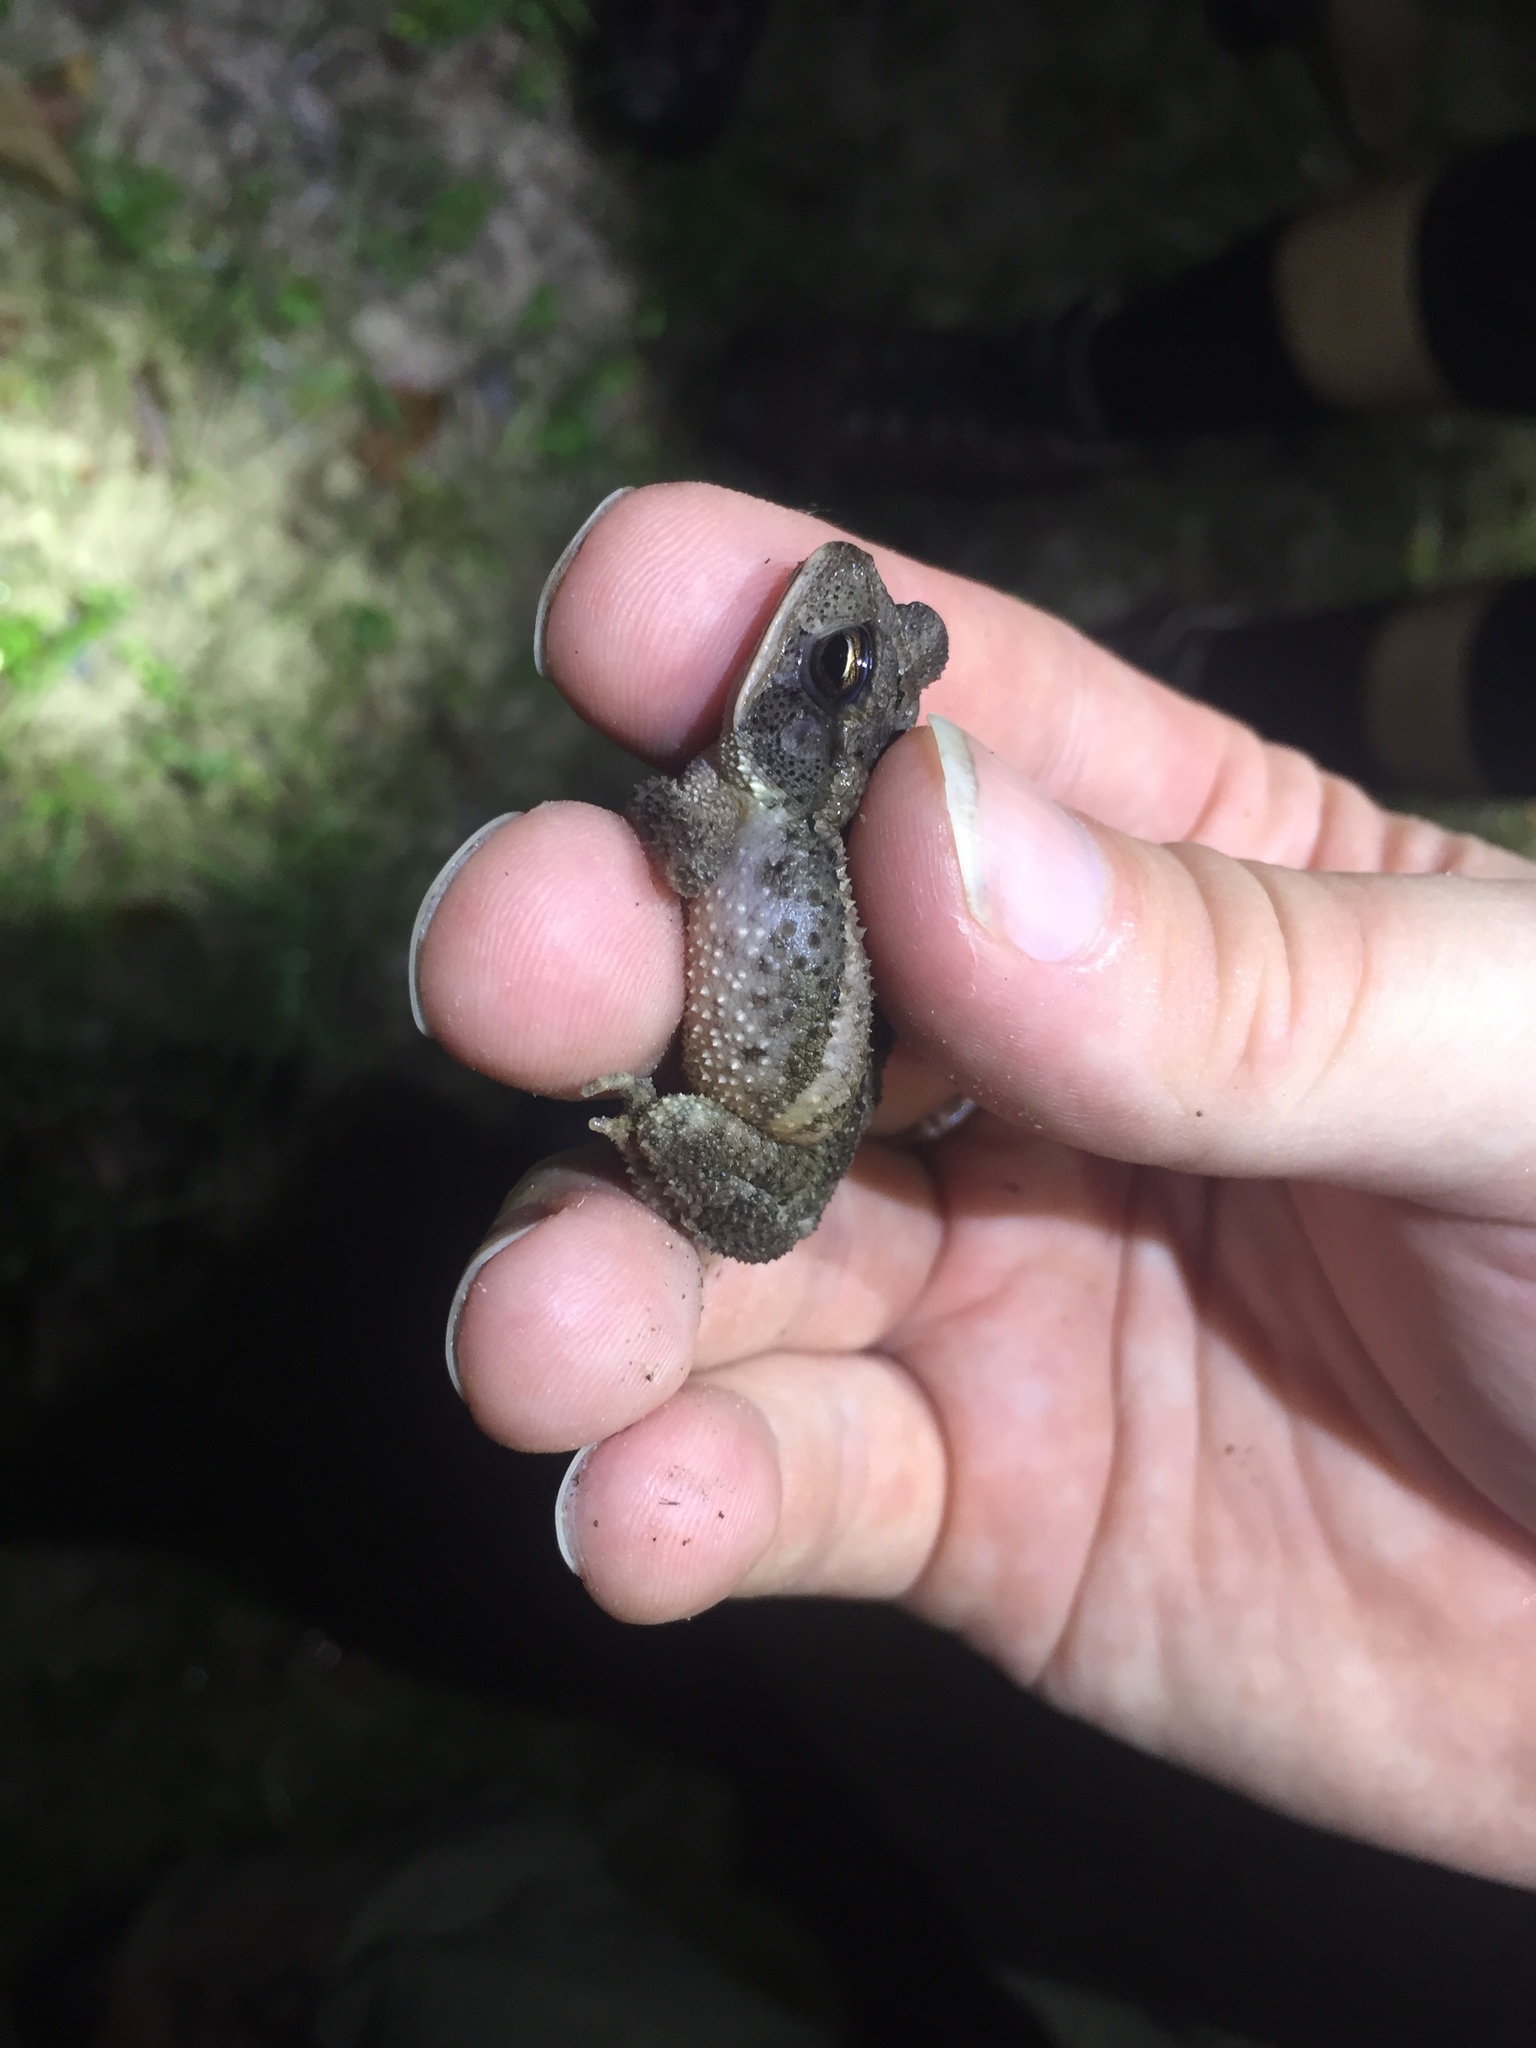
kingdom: Animalia
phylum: Chordata
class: Amphibia
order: Anura
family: Bufonidae
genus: Incilius
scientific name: Incilius valliceps
